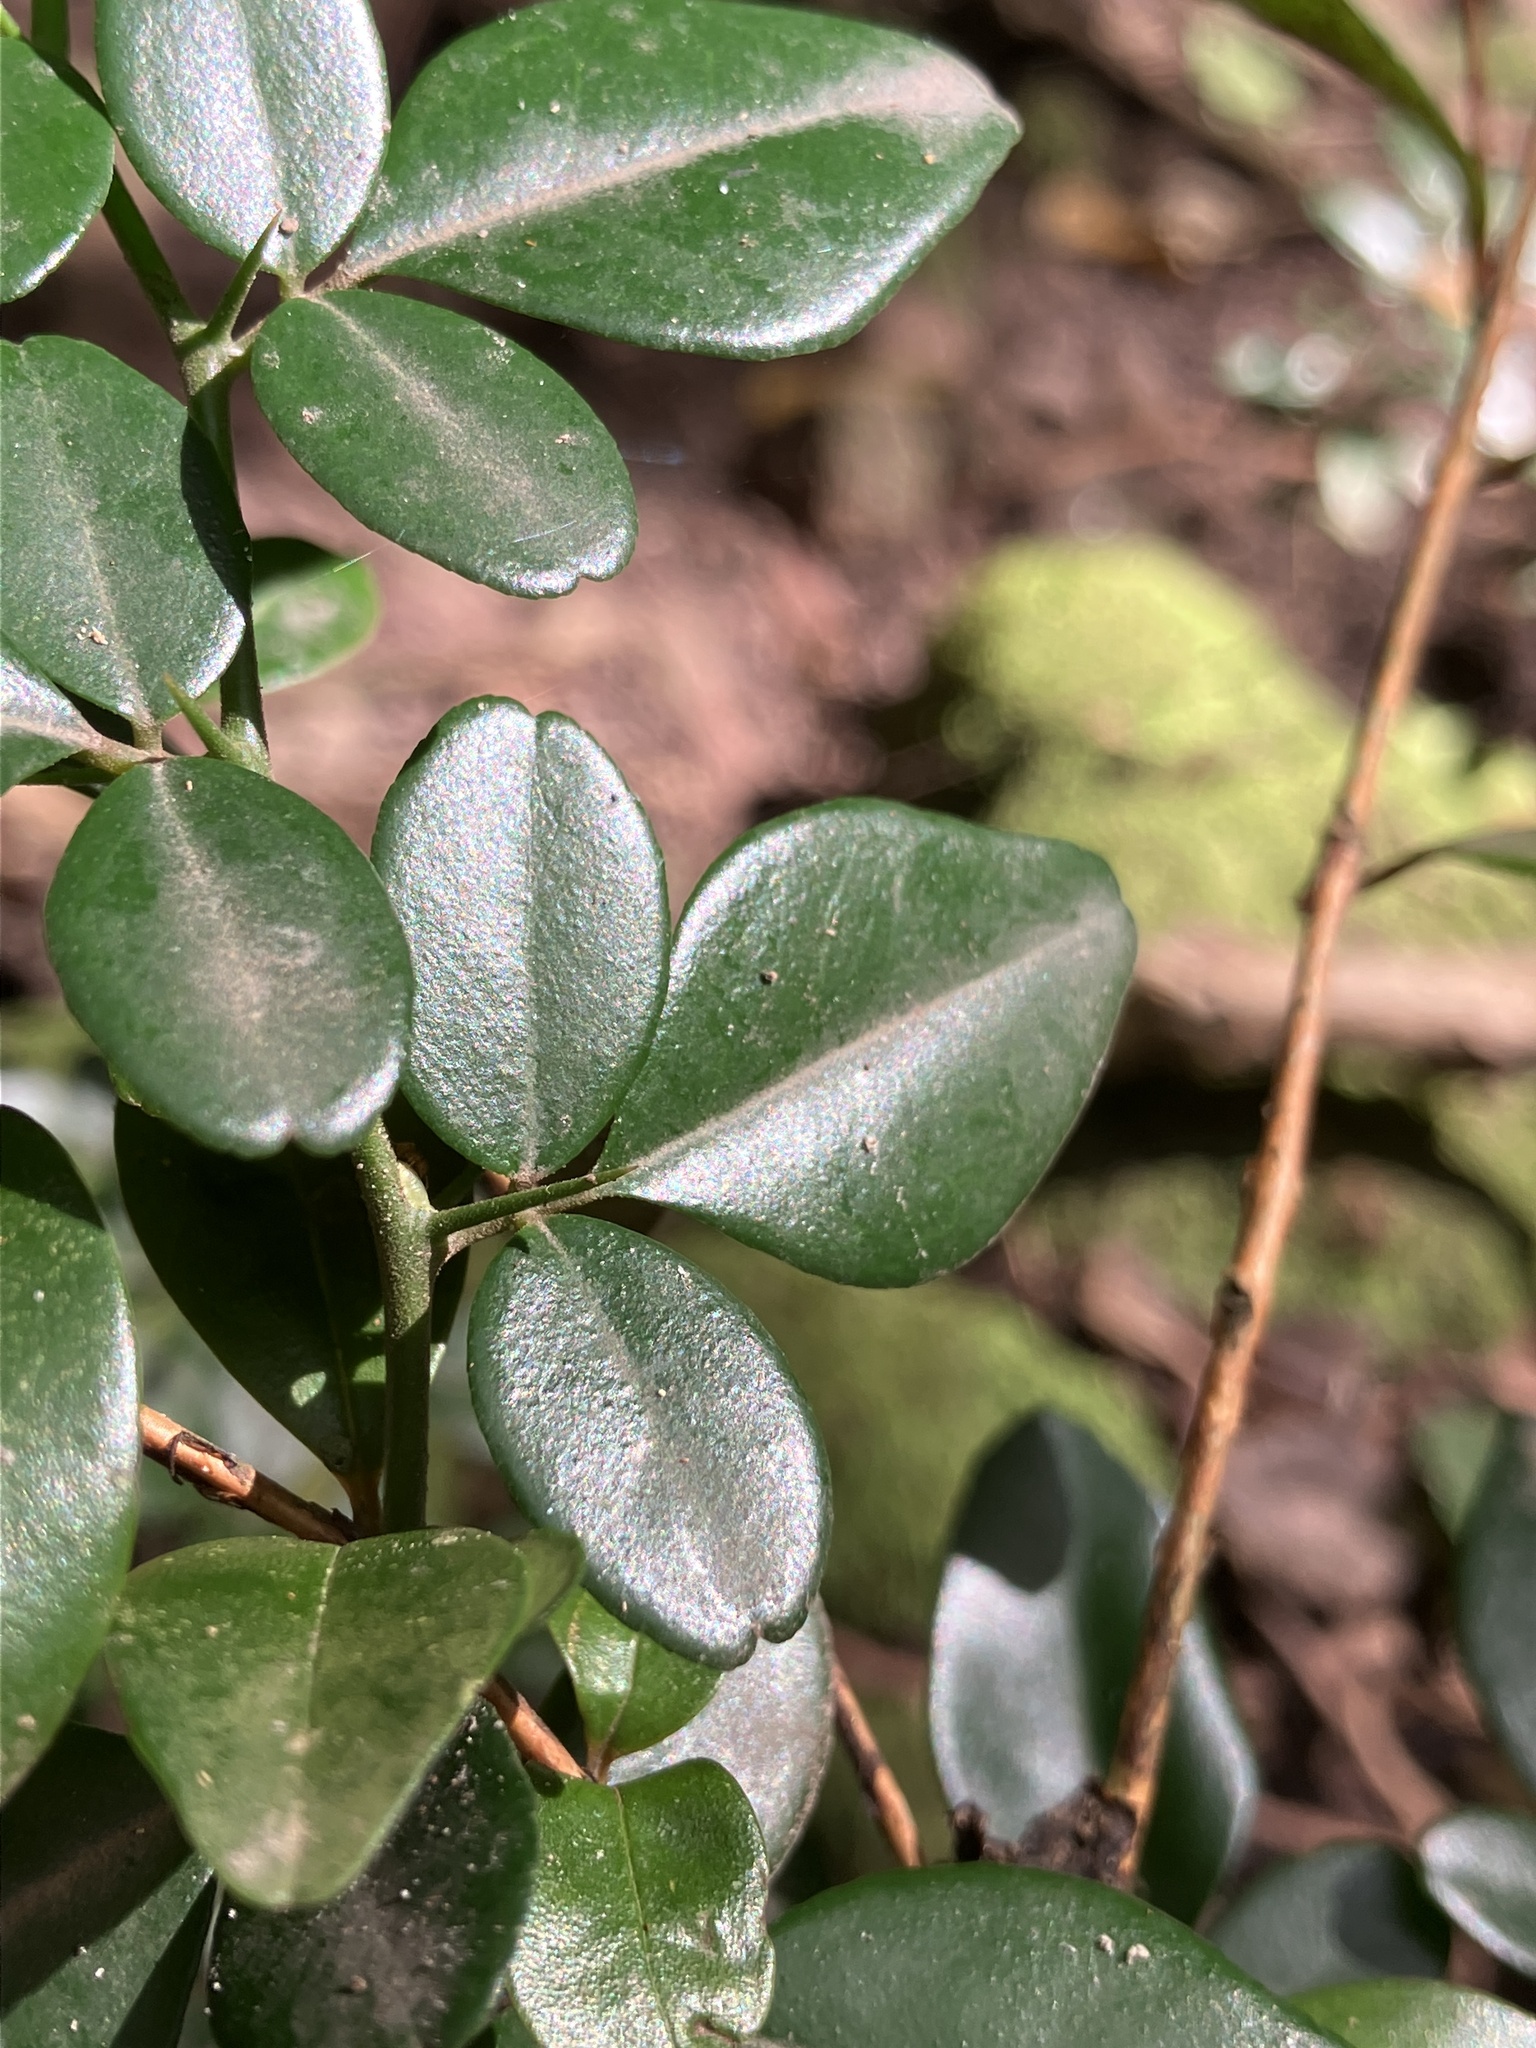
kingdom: Plantae
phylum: Tracheophyta
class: Magnoliopsida
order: Sapindales
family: Rutaceae
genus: Triphasia
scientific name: Triphasia trifolia
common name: Limeberry
